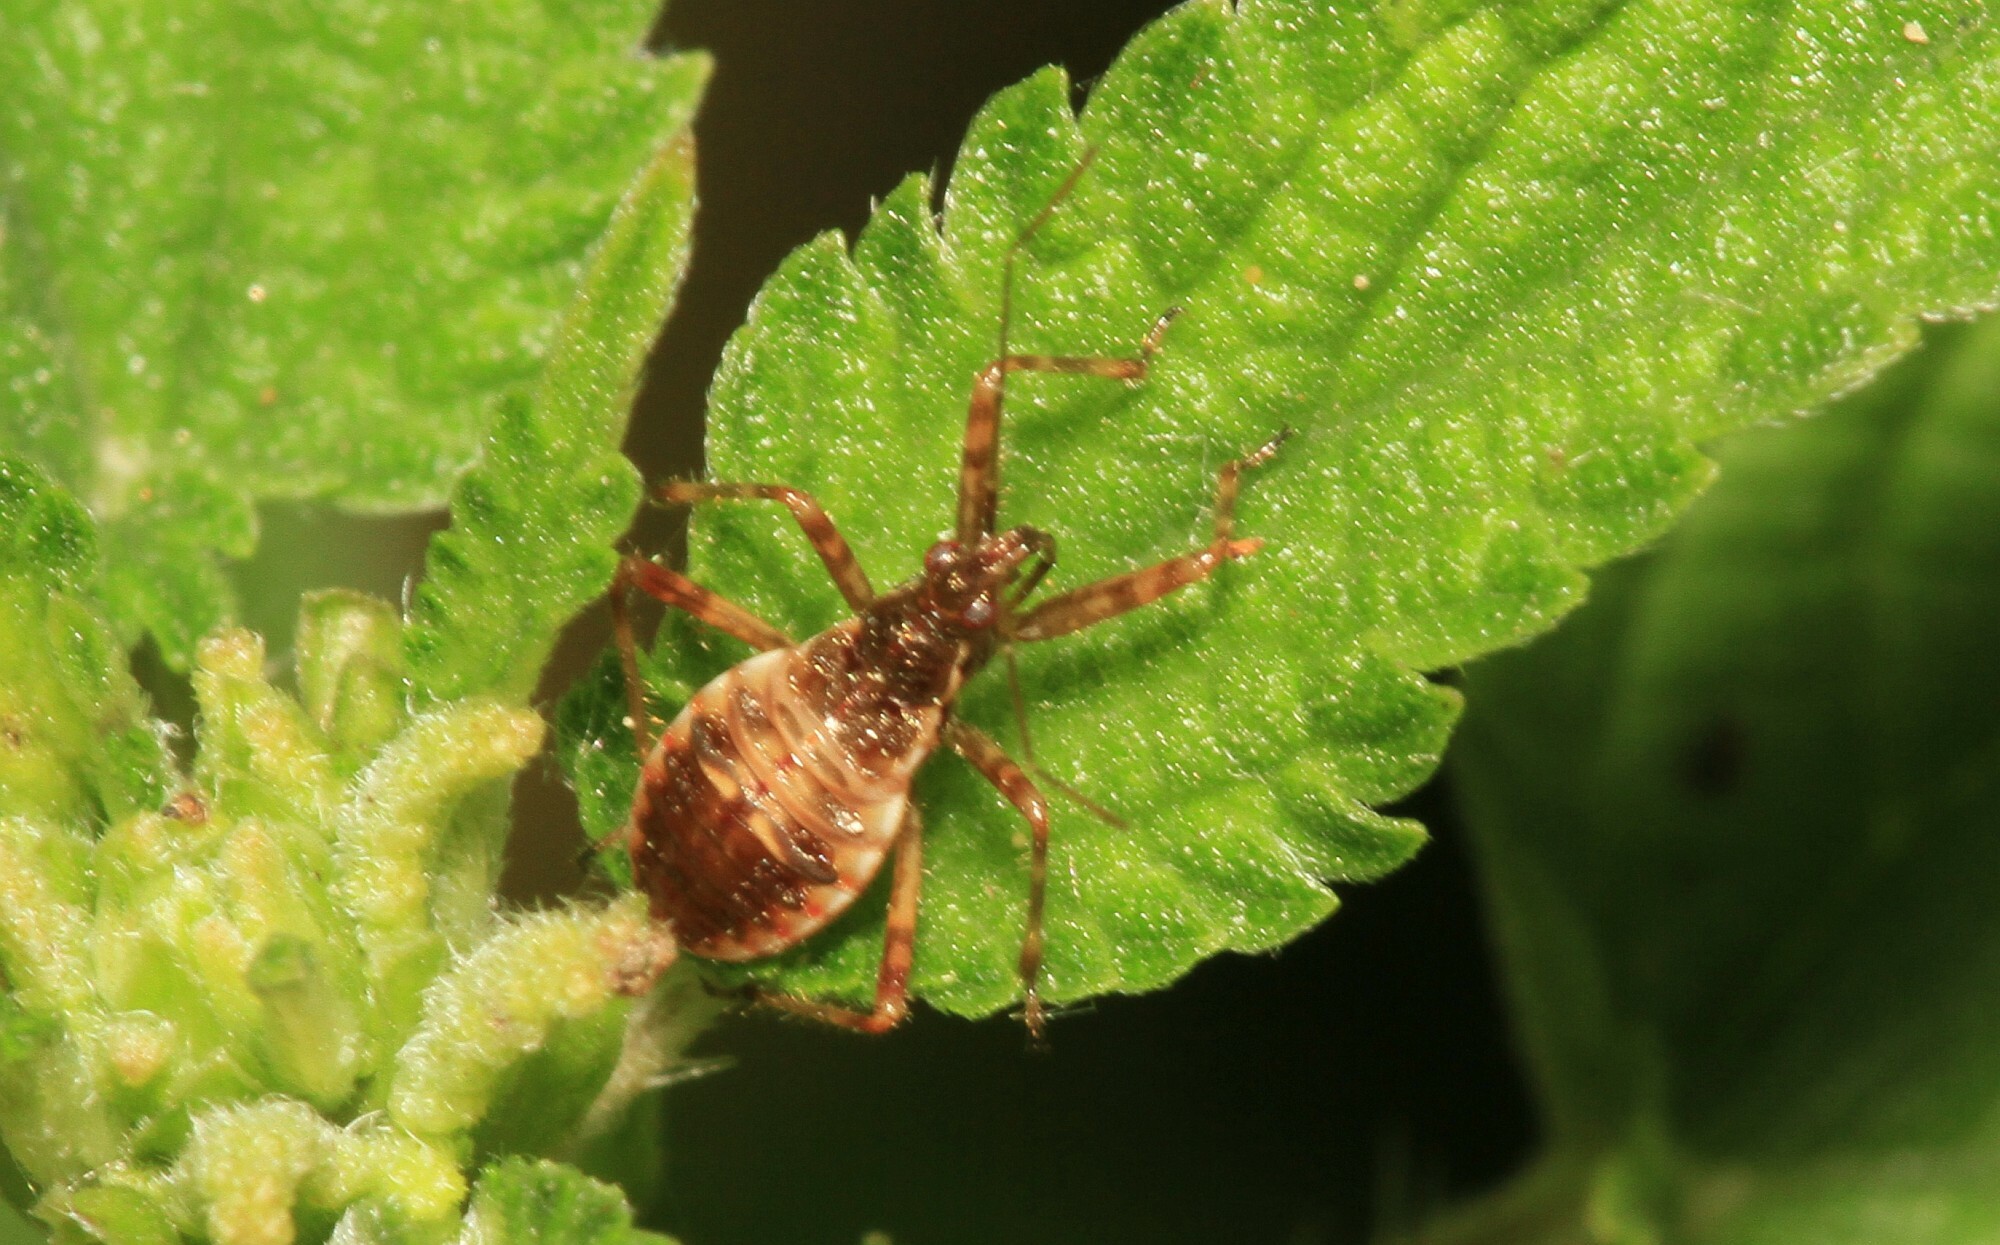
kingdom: Animalia
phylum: Arthropoda
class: Insecta
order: Hemiptera
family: Nabidae
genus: Himacerus
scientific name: Himacerus apterus
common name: Tree damsel bug
